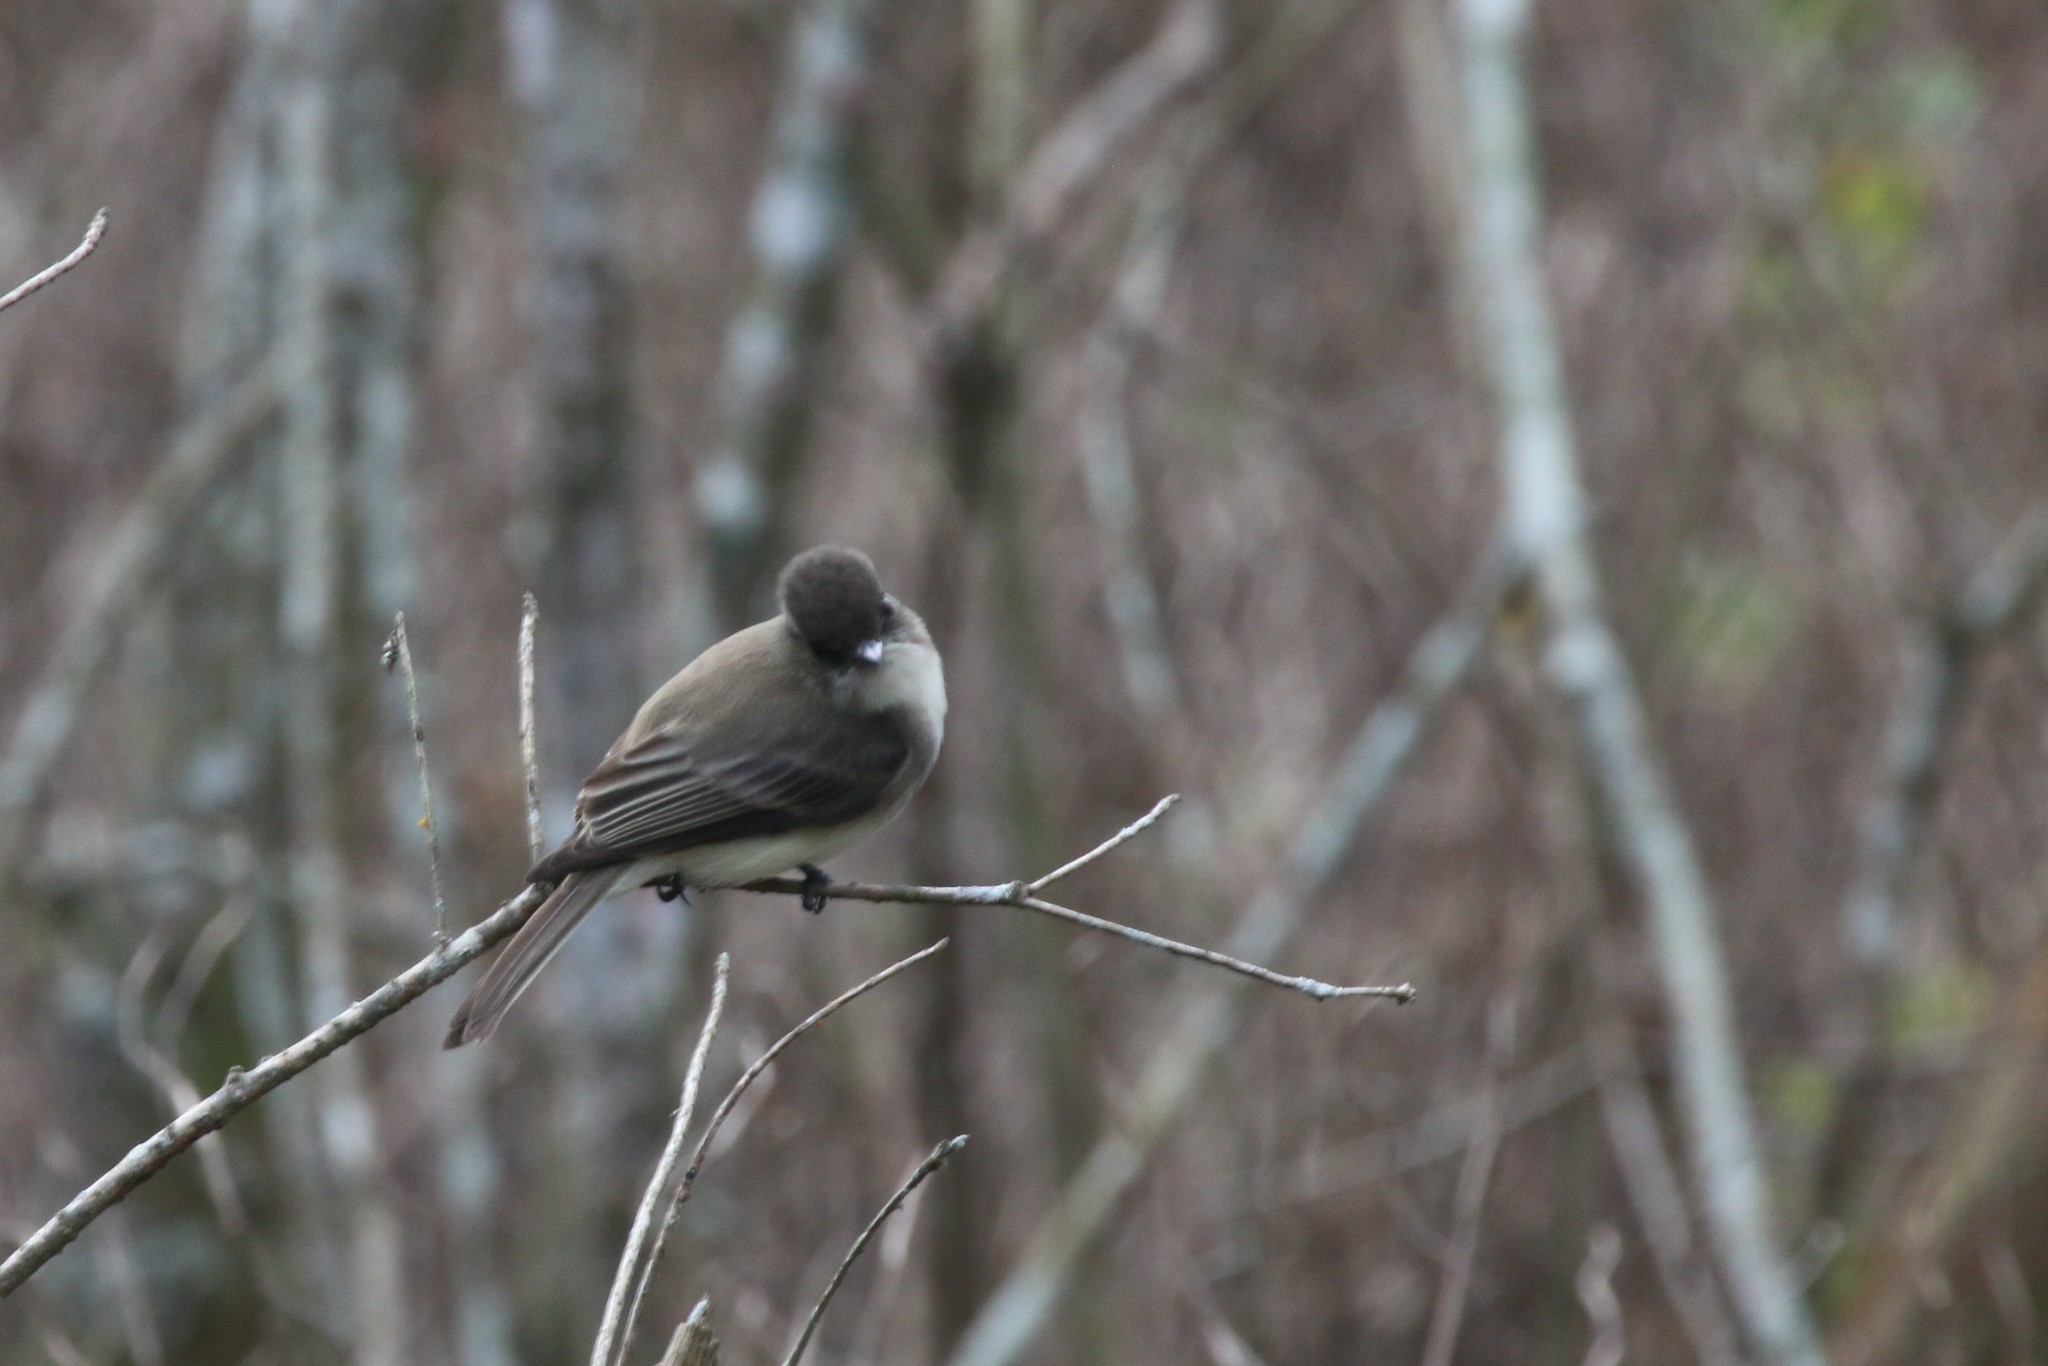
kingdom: Animalia
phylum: Chordata
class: Aves
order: Passeriformes
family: Tyrannidae
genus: Sayornis
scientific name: Sayornis phoebe
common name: Eastern phoebe
